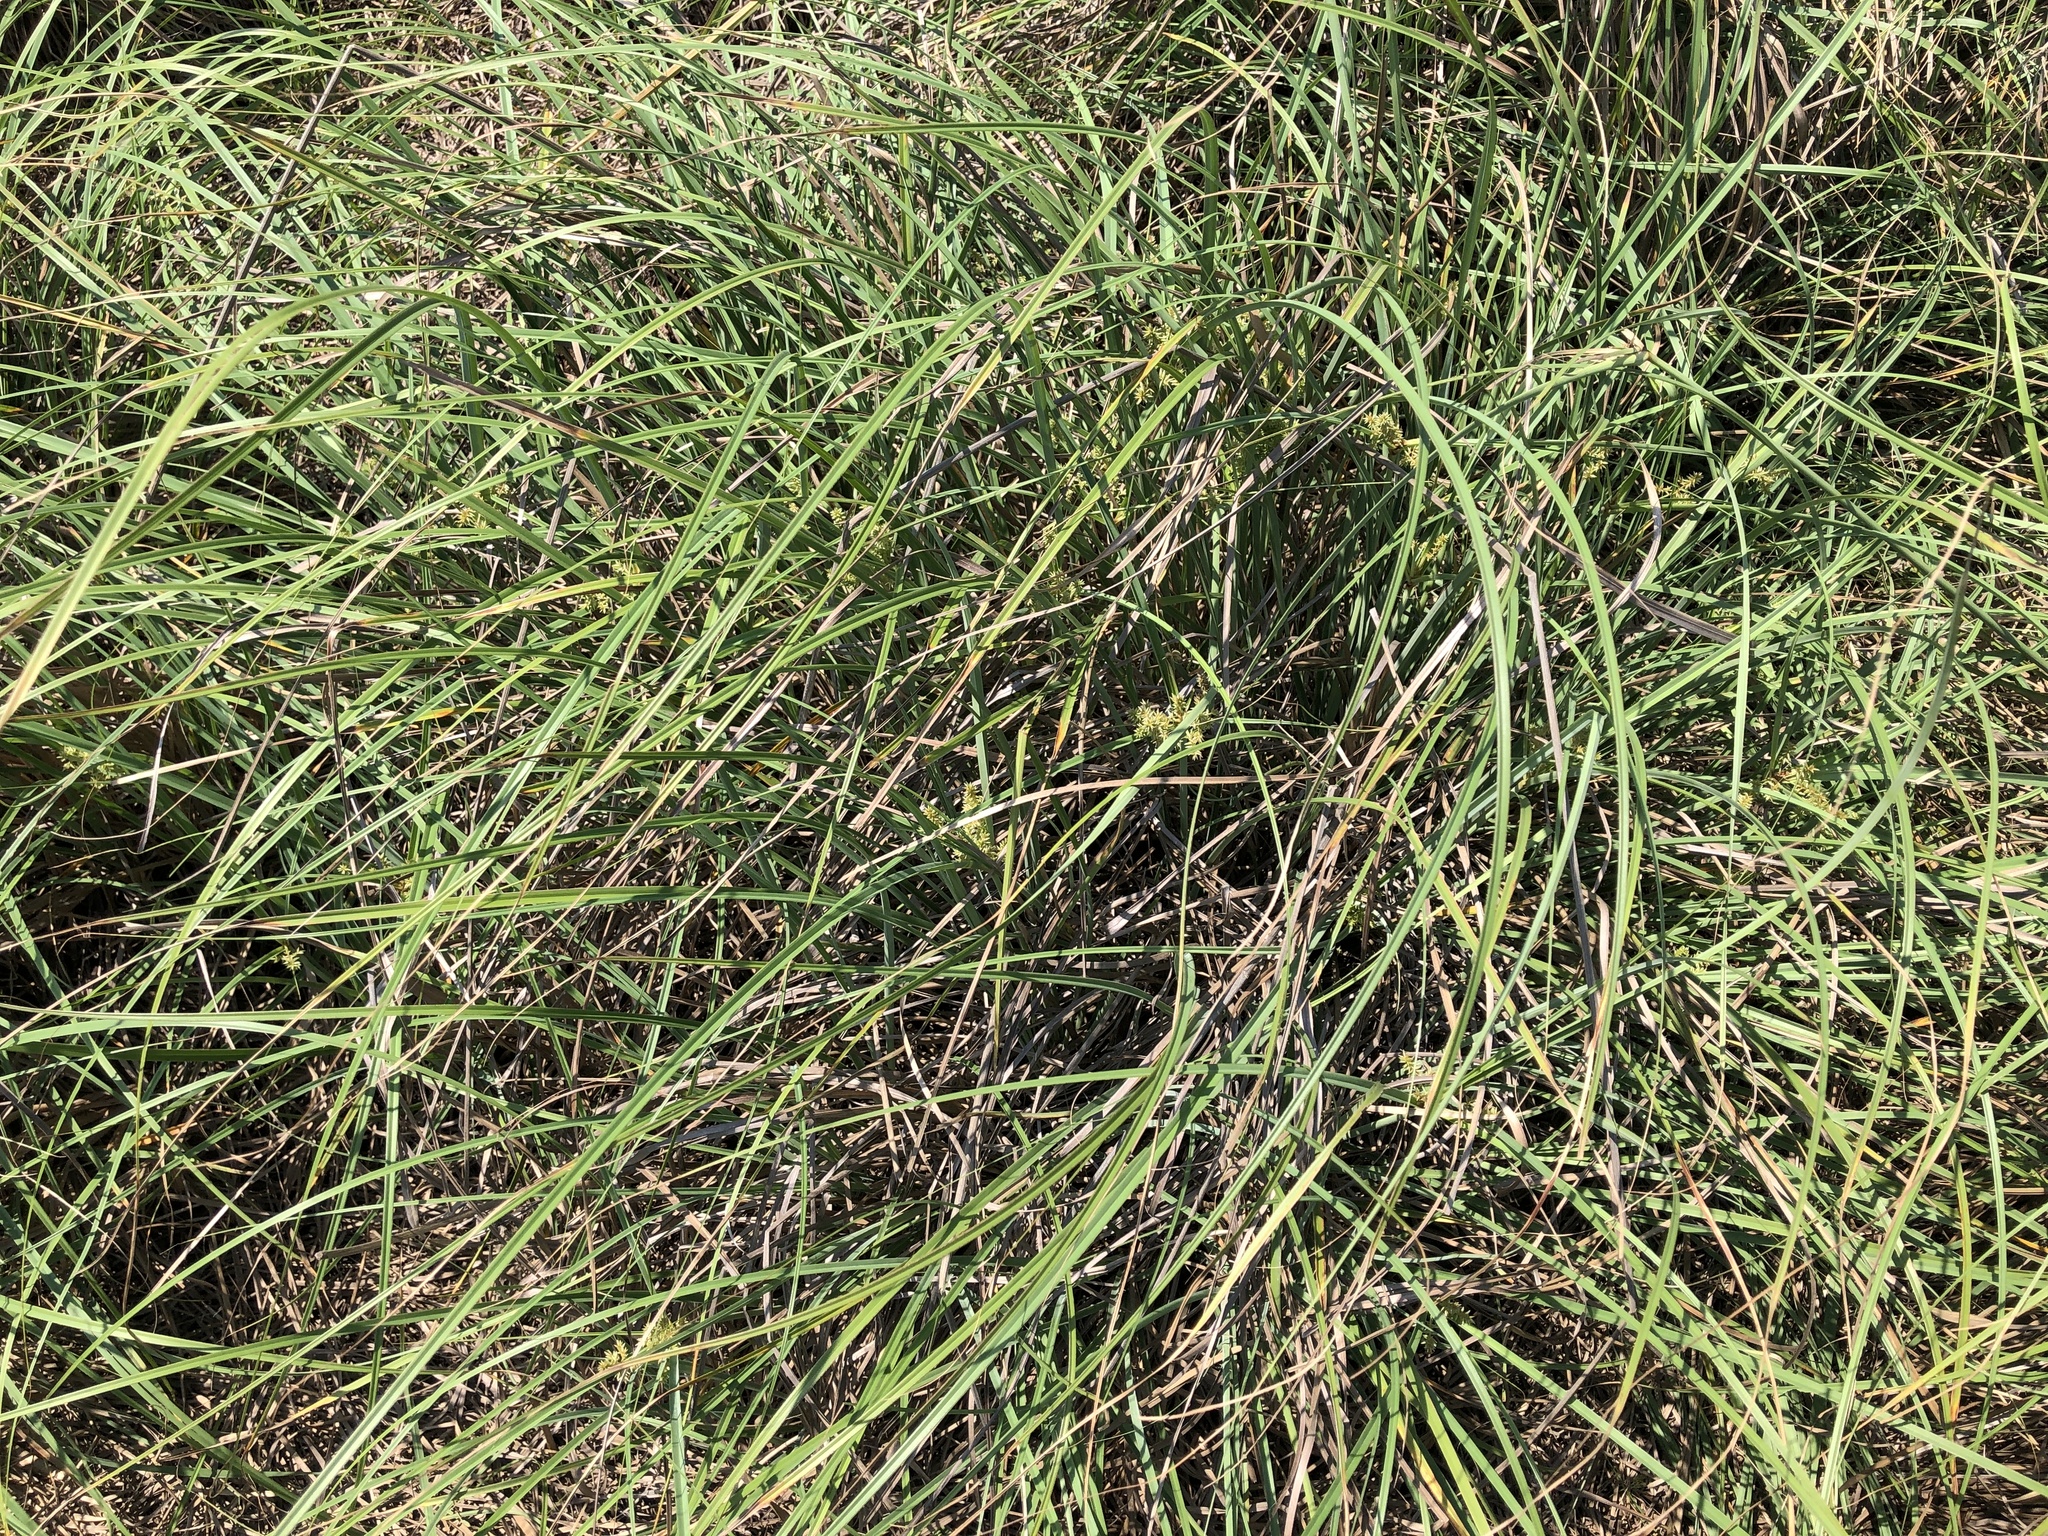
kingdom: Plantae
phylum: Tracheophyta
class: Liliopsida
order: Poales
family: Cyperaceae
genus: Cyperus
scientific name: Cyperus javanicus
